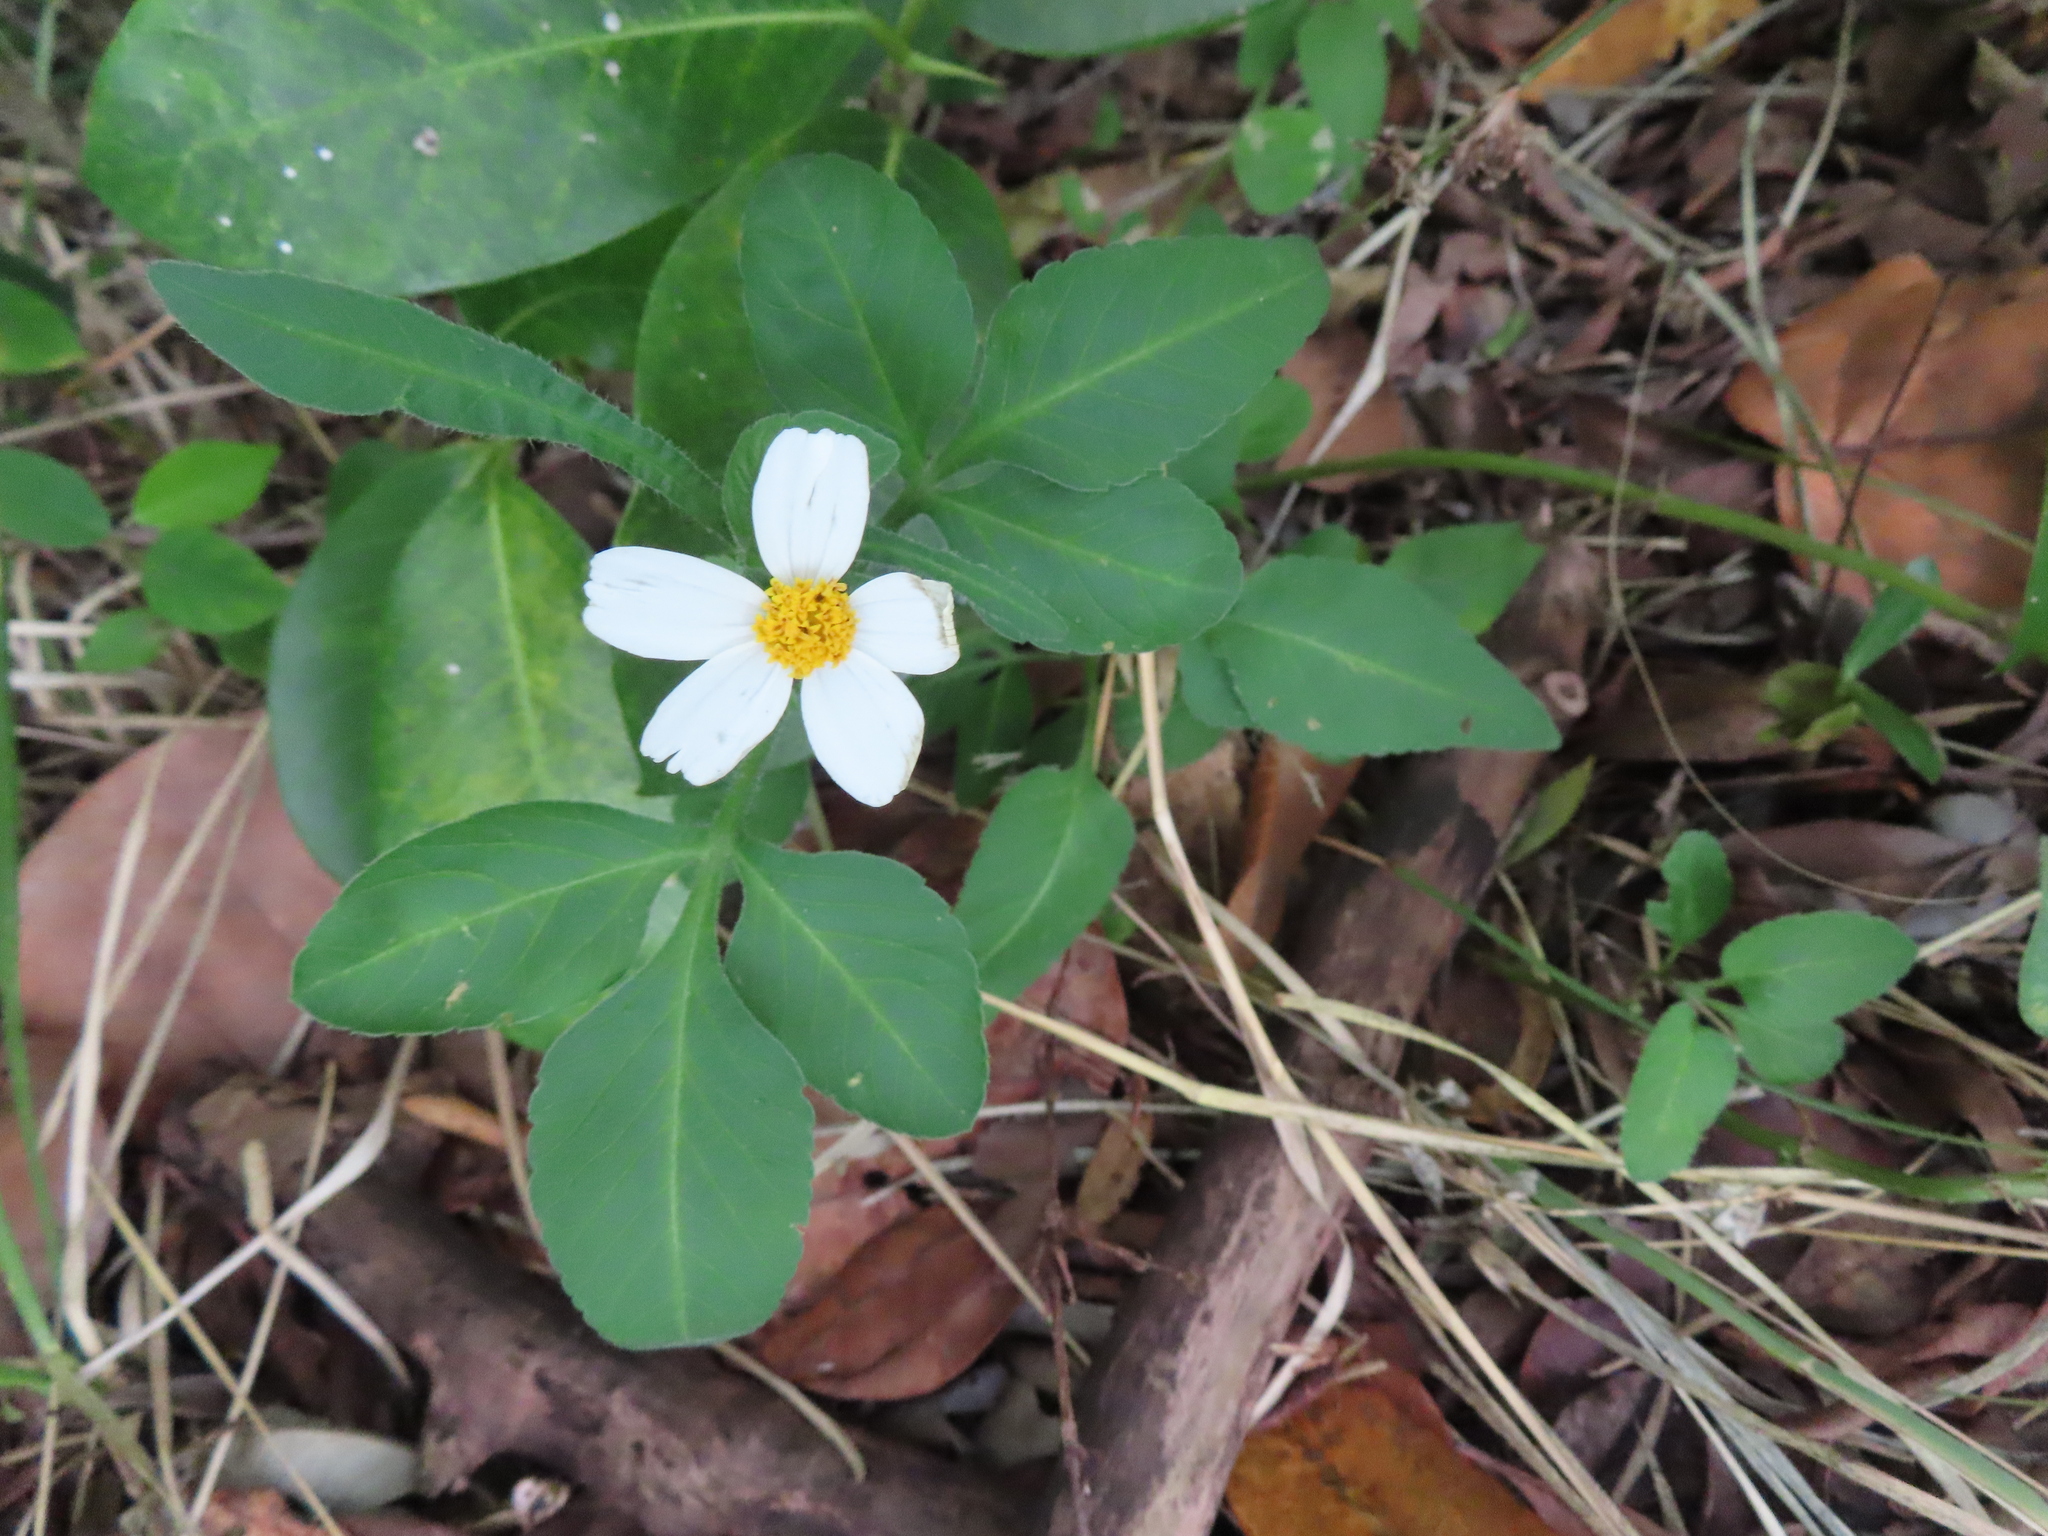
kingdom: Plantae
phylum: Tracheophyta
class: Magnoliopsida
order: Asterales
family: Asteraceae
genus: Bidens
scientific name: Bidens alba
